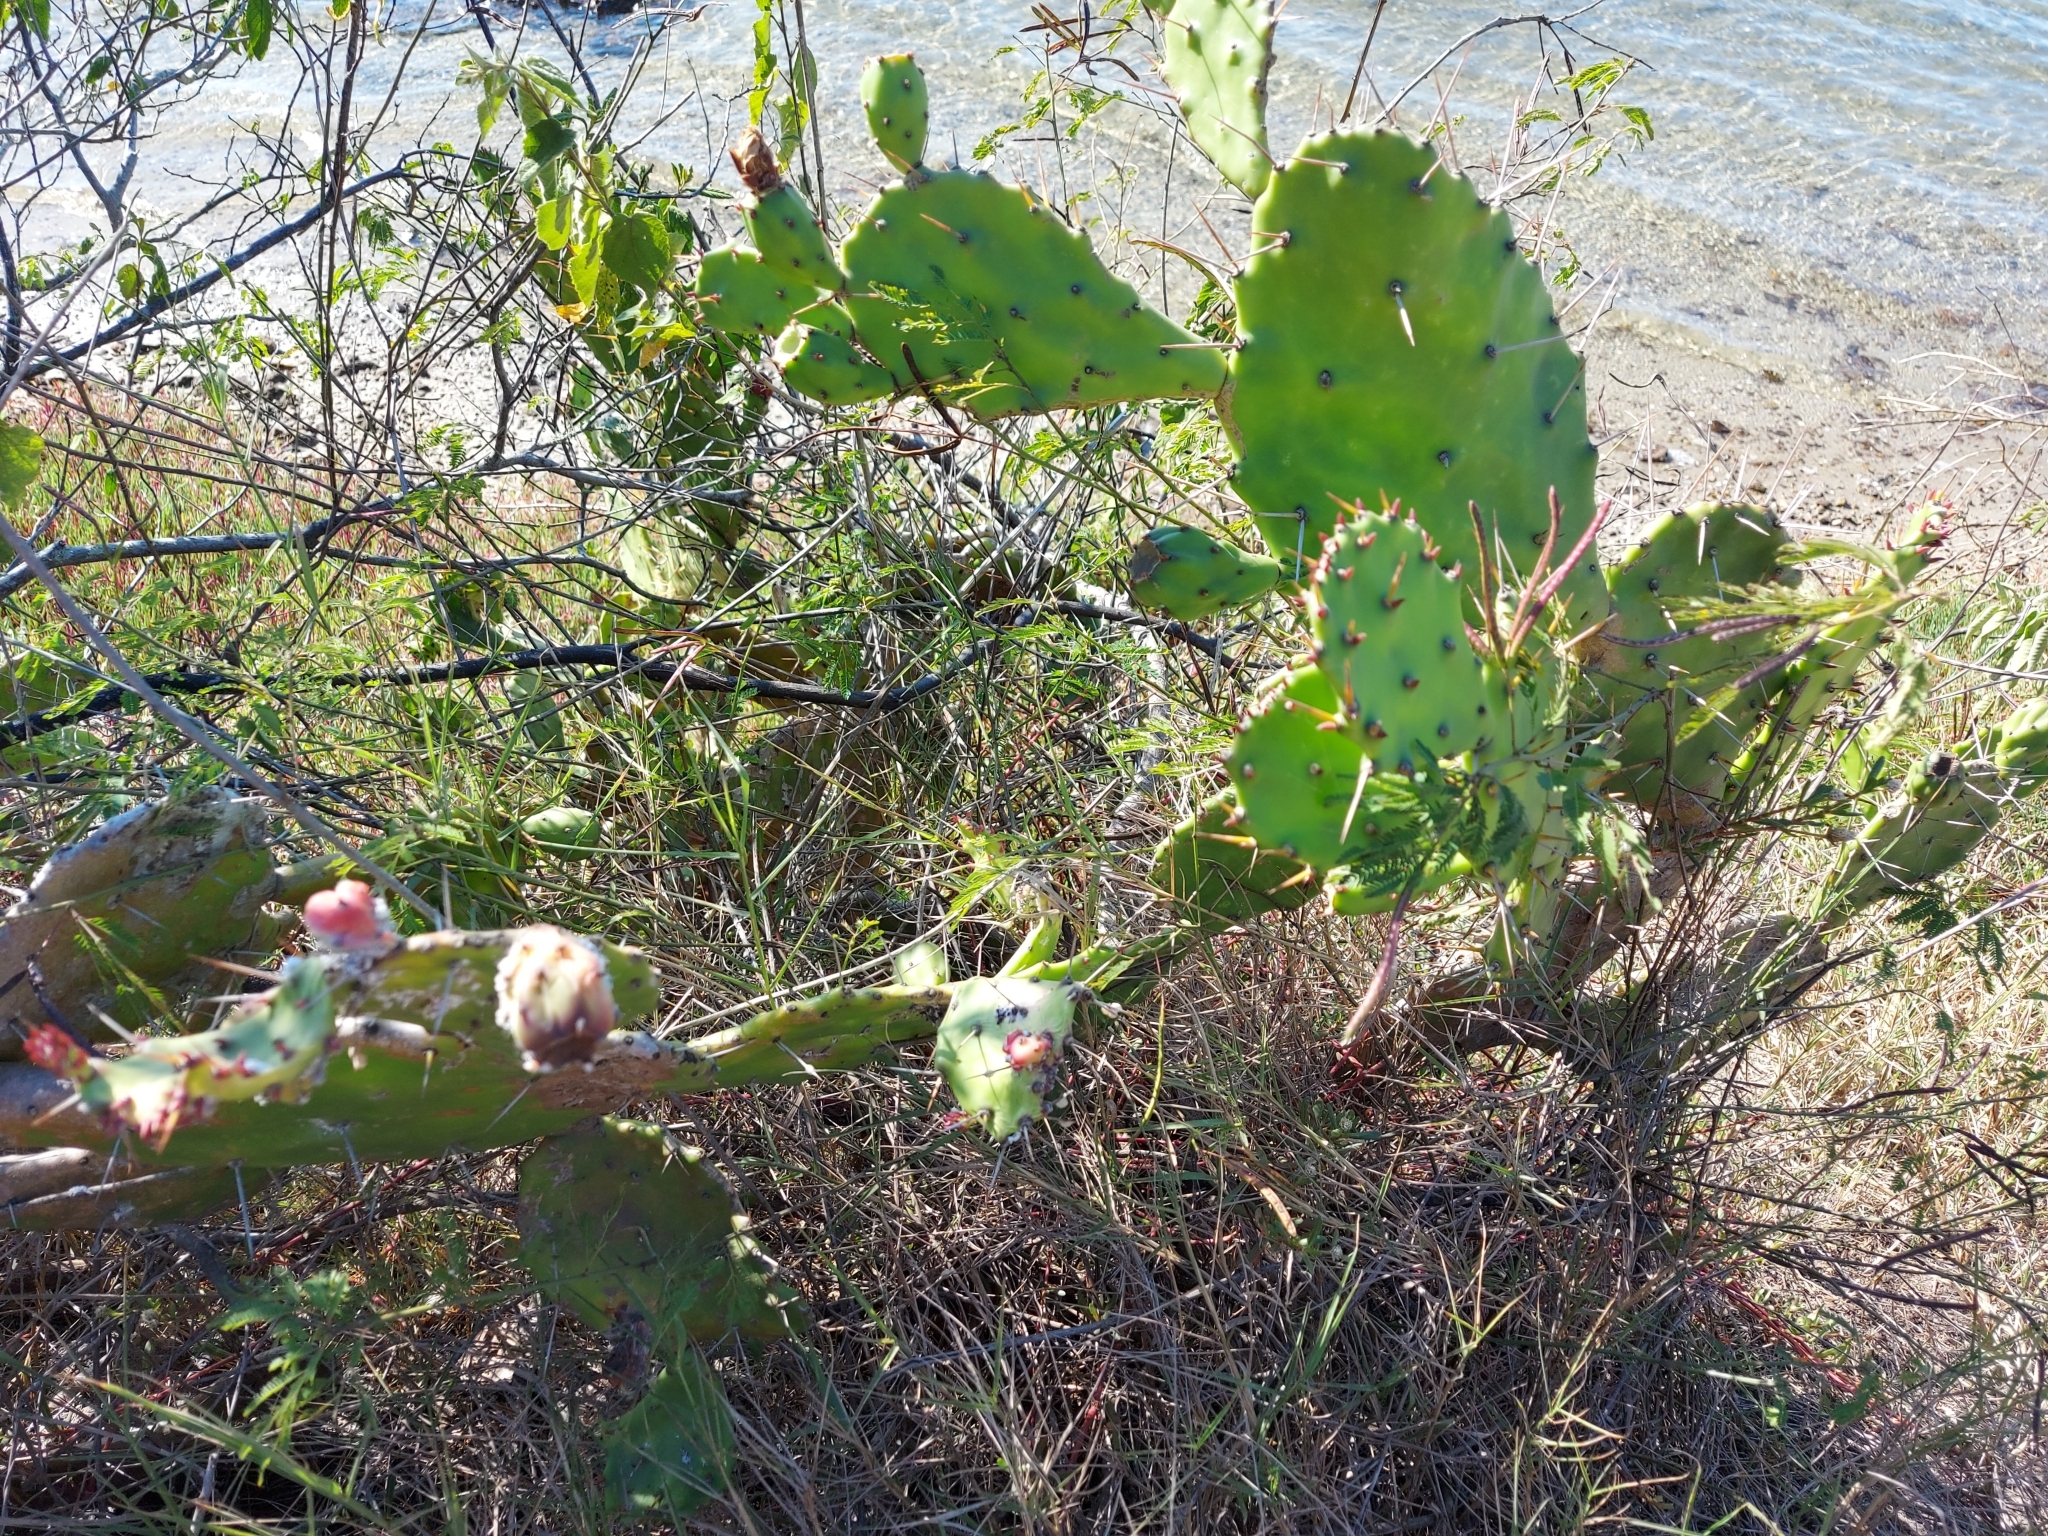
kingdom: Plantae
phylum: Tracheophyta
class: Magnoliopsida
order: Caryophyllales
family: Cactaceae
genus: Opuntia
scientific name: Opuntia monacantha
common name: Common pricklypear
